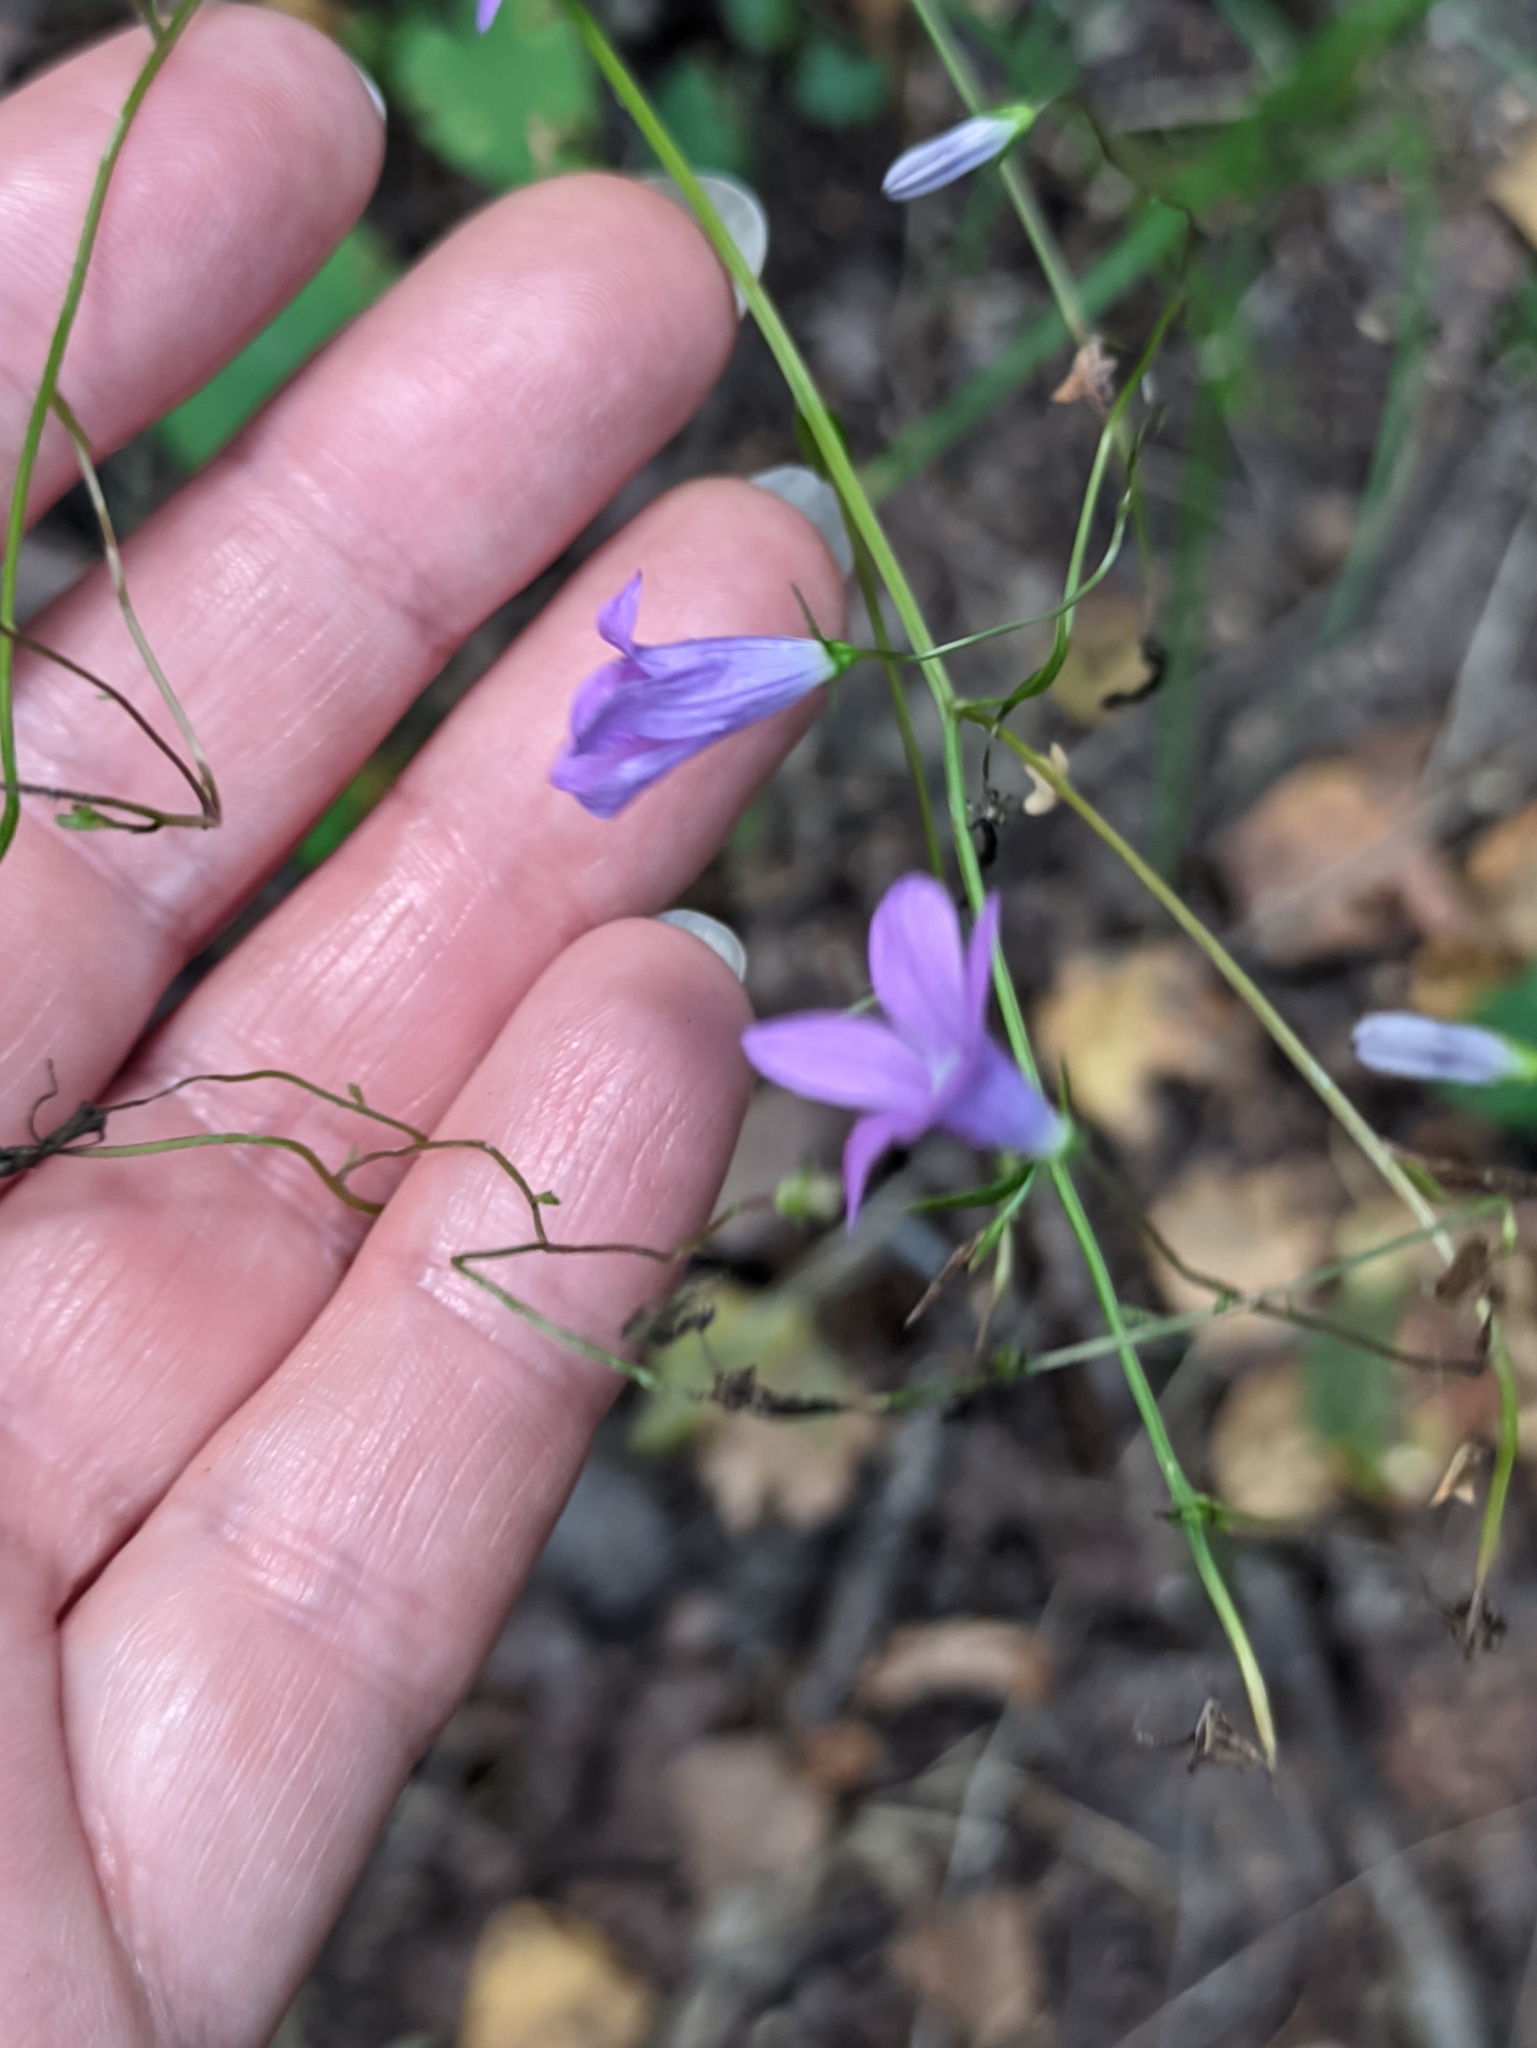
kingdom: Plantae
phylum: Tracheophyta
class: Magnoliopsida
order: Asterales
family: Campanulaceae
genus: Campanula
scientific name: Campanula patula
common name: Spreading bellflower
